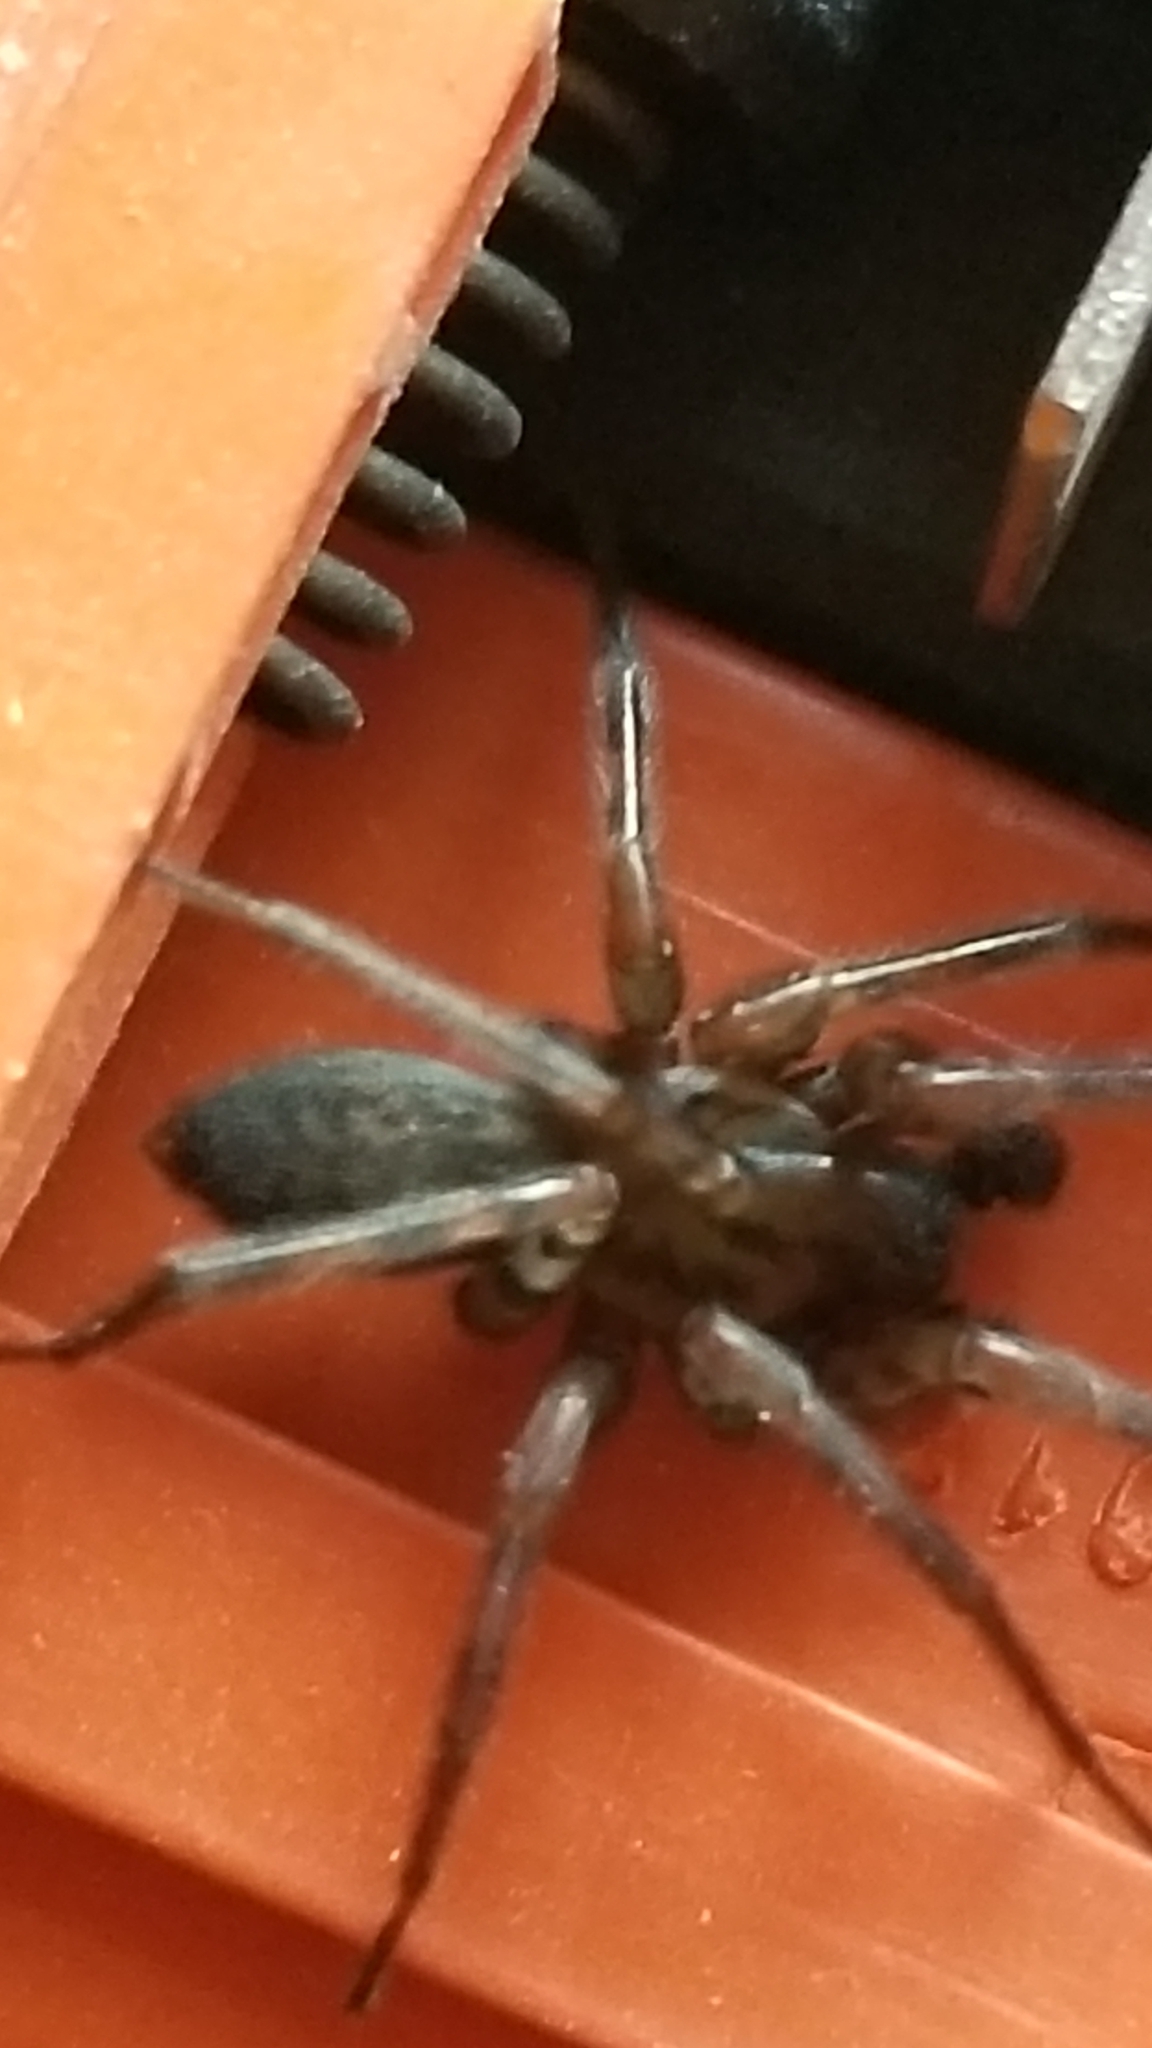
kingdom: Animalia
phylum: Arthropoda
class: Arachnida
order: Araneae
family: Agelenidae
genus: Coras
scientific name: Coras
